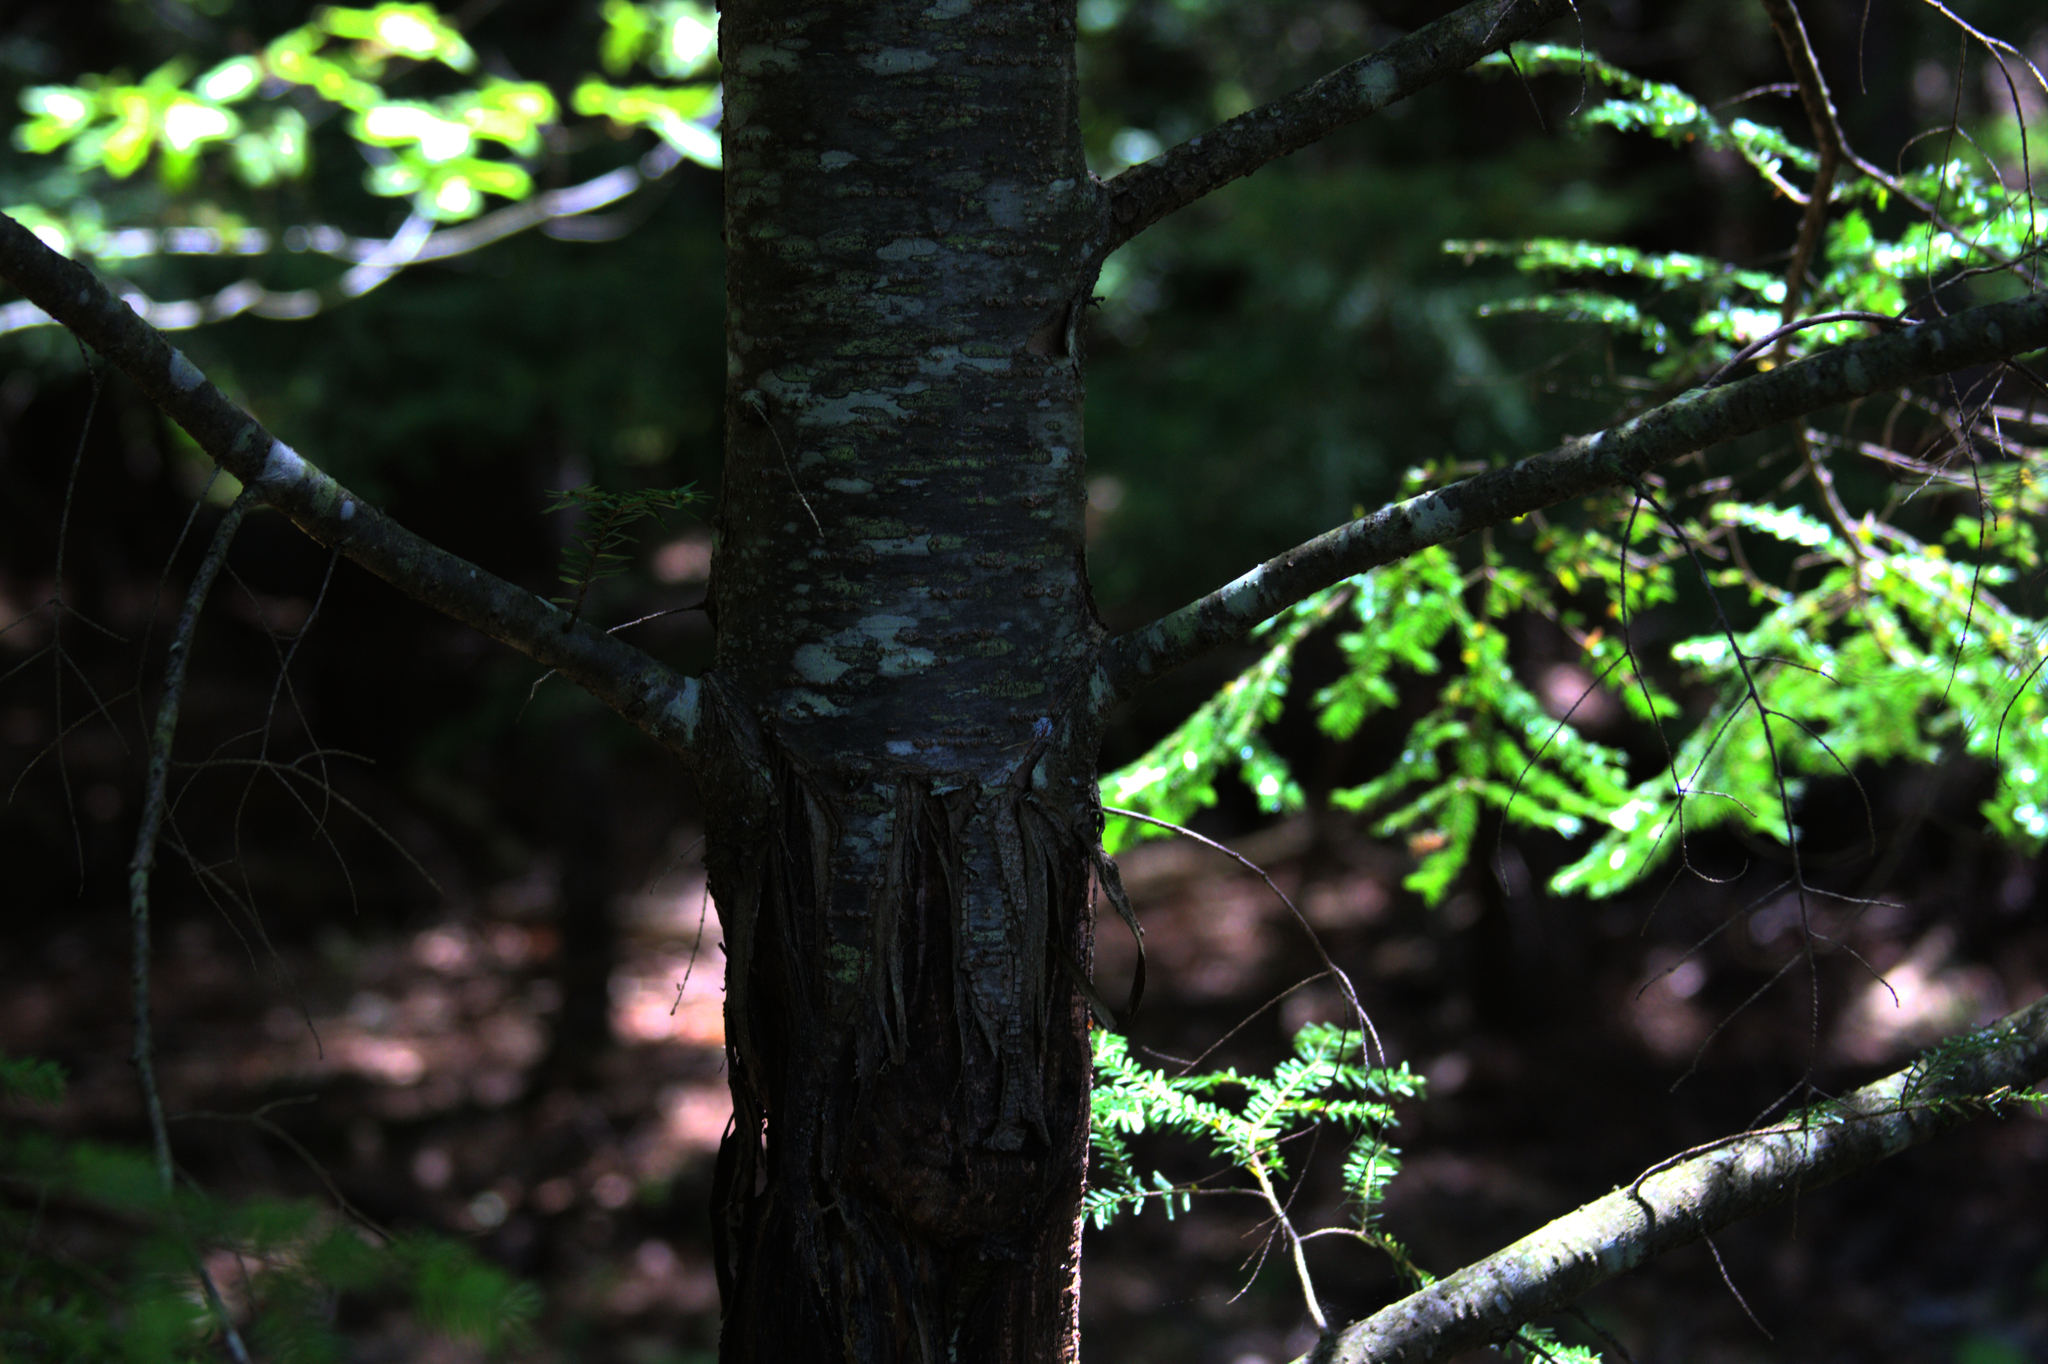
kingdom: Plantae
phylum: Tracheophyta
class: Pinopsida
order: Pinales
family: Pinaceae
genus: Tsuga
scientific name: Tsuga canadensis
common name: Eastern hemlock
